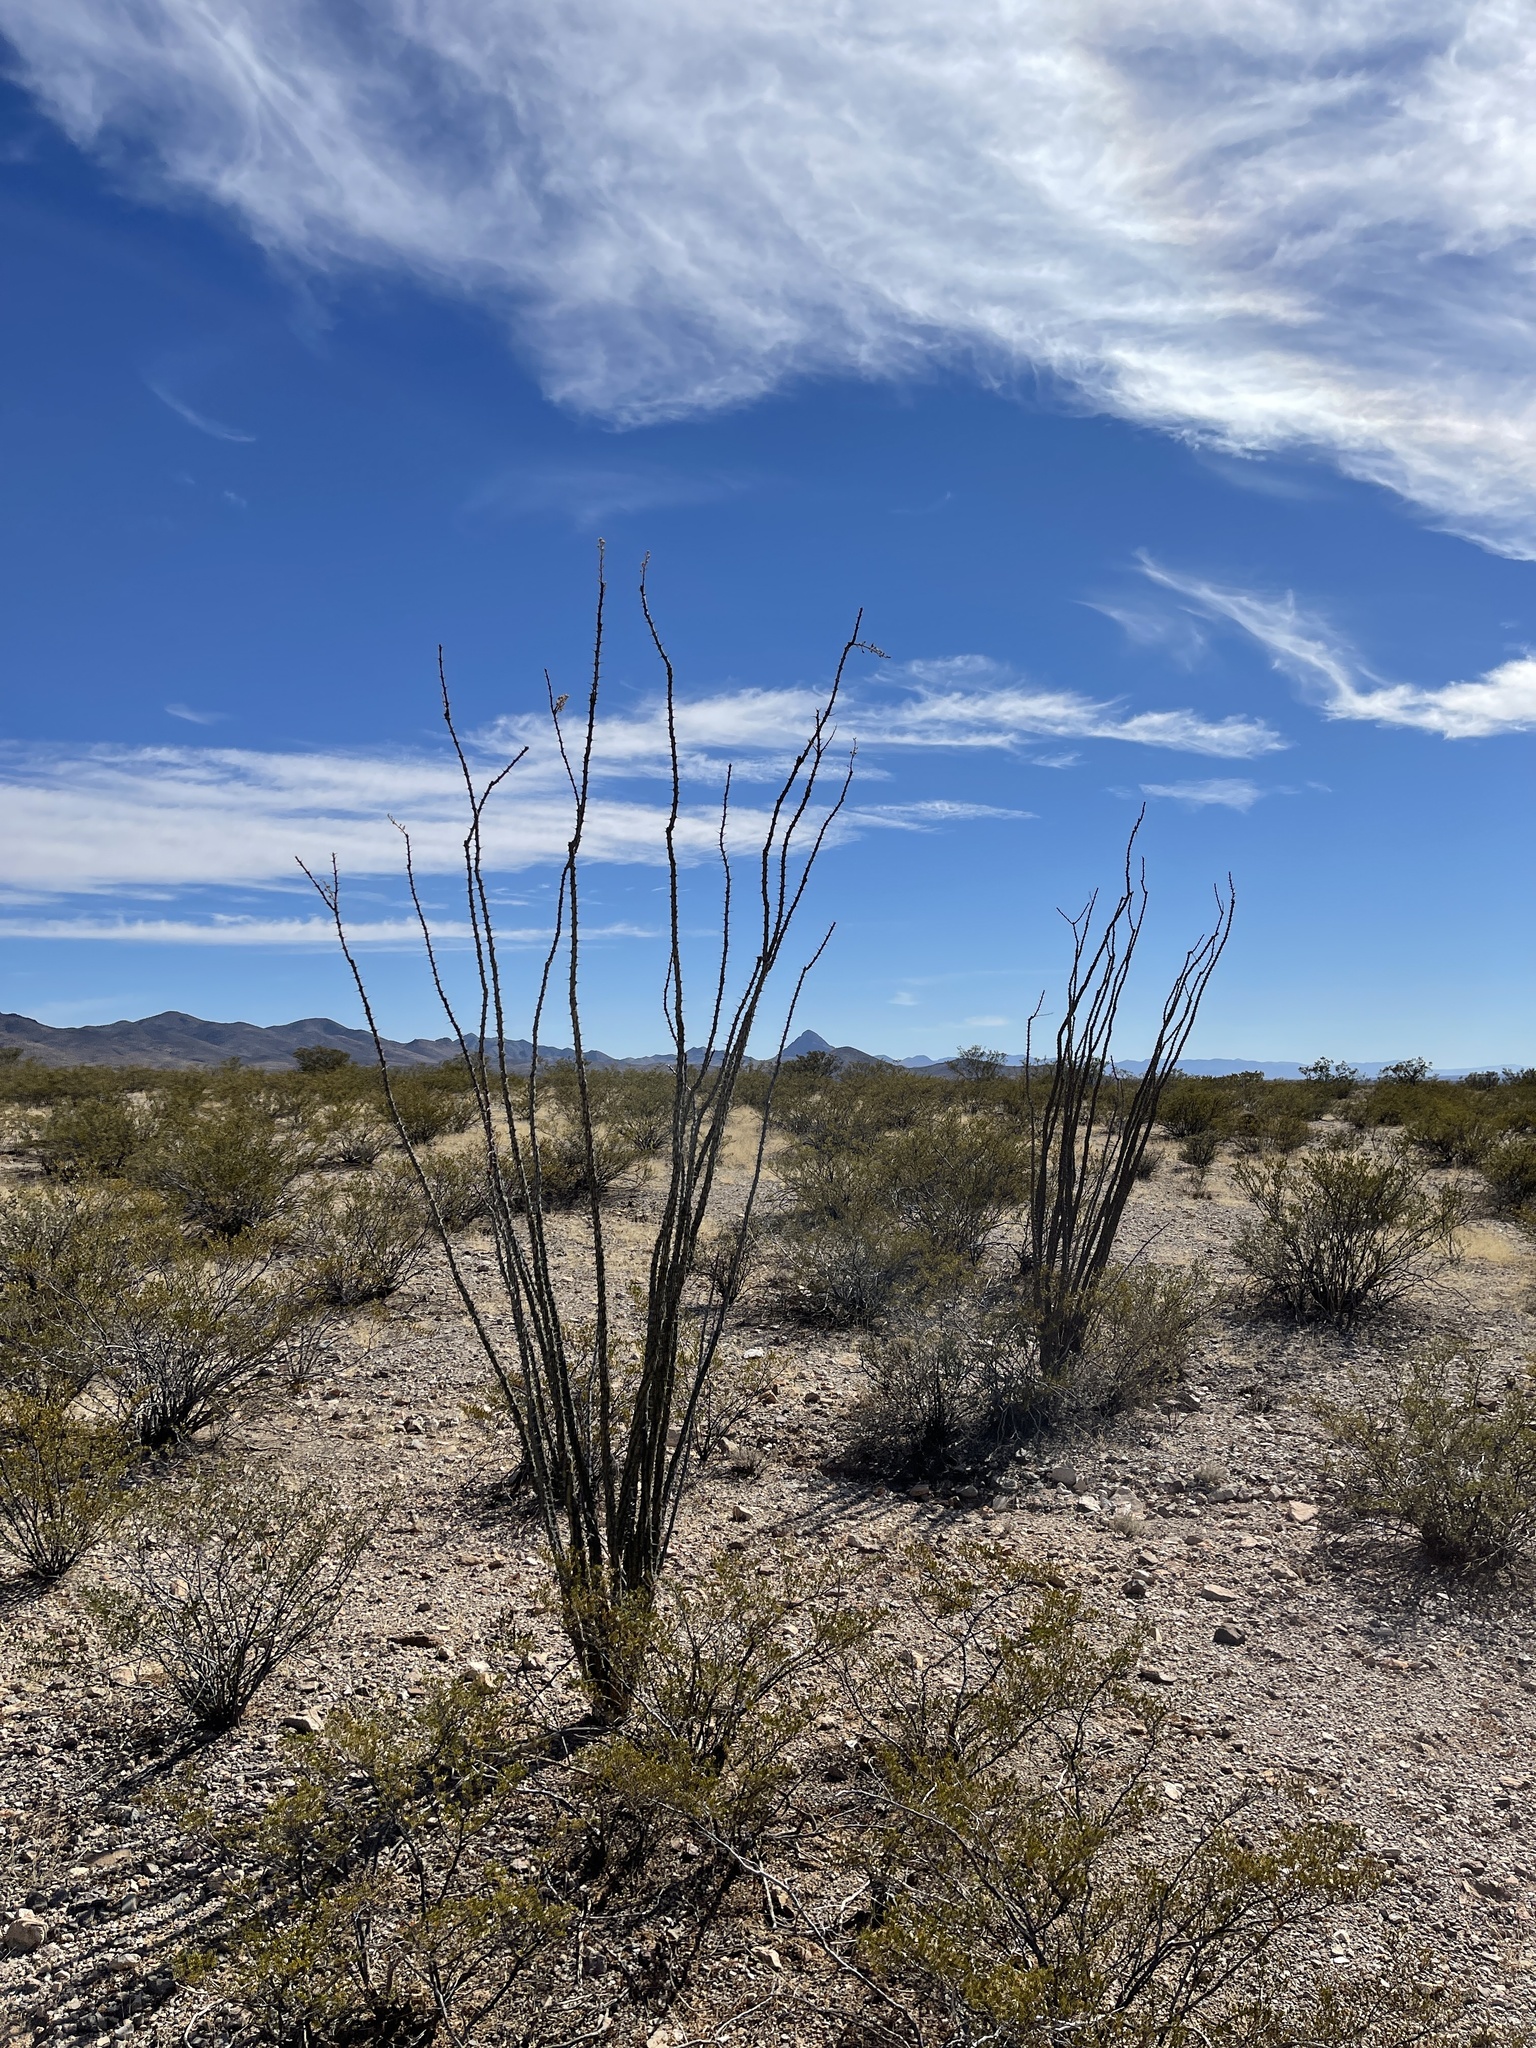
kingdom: Plantae
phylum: Tracheophyta
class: Magnoliopsida
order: Ericales
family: Fouquieriaceae
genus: Fouquieria
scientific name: Fouquieria splendens
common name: Vine-cactus
